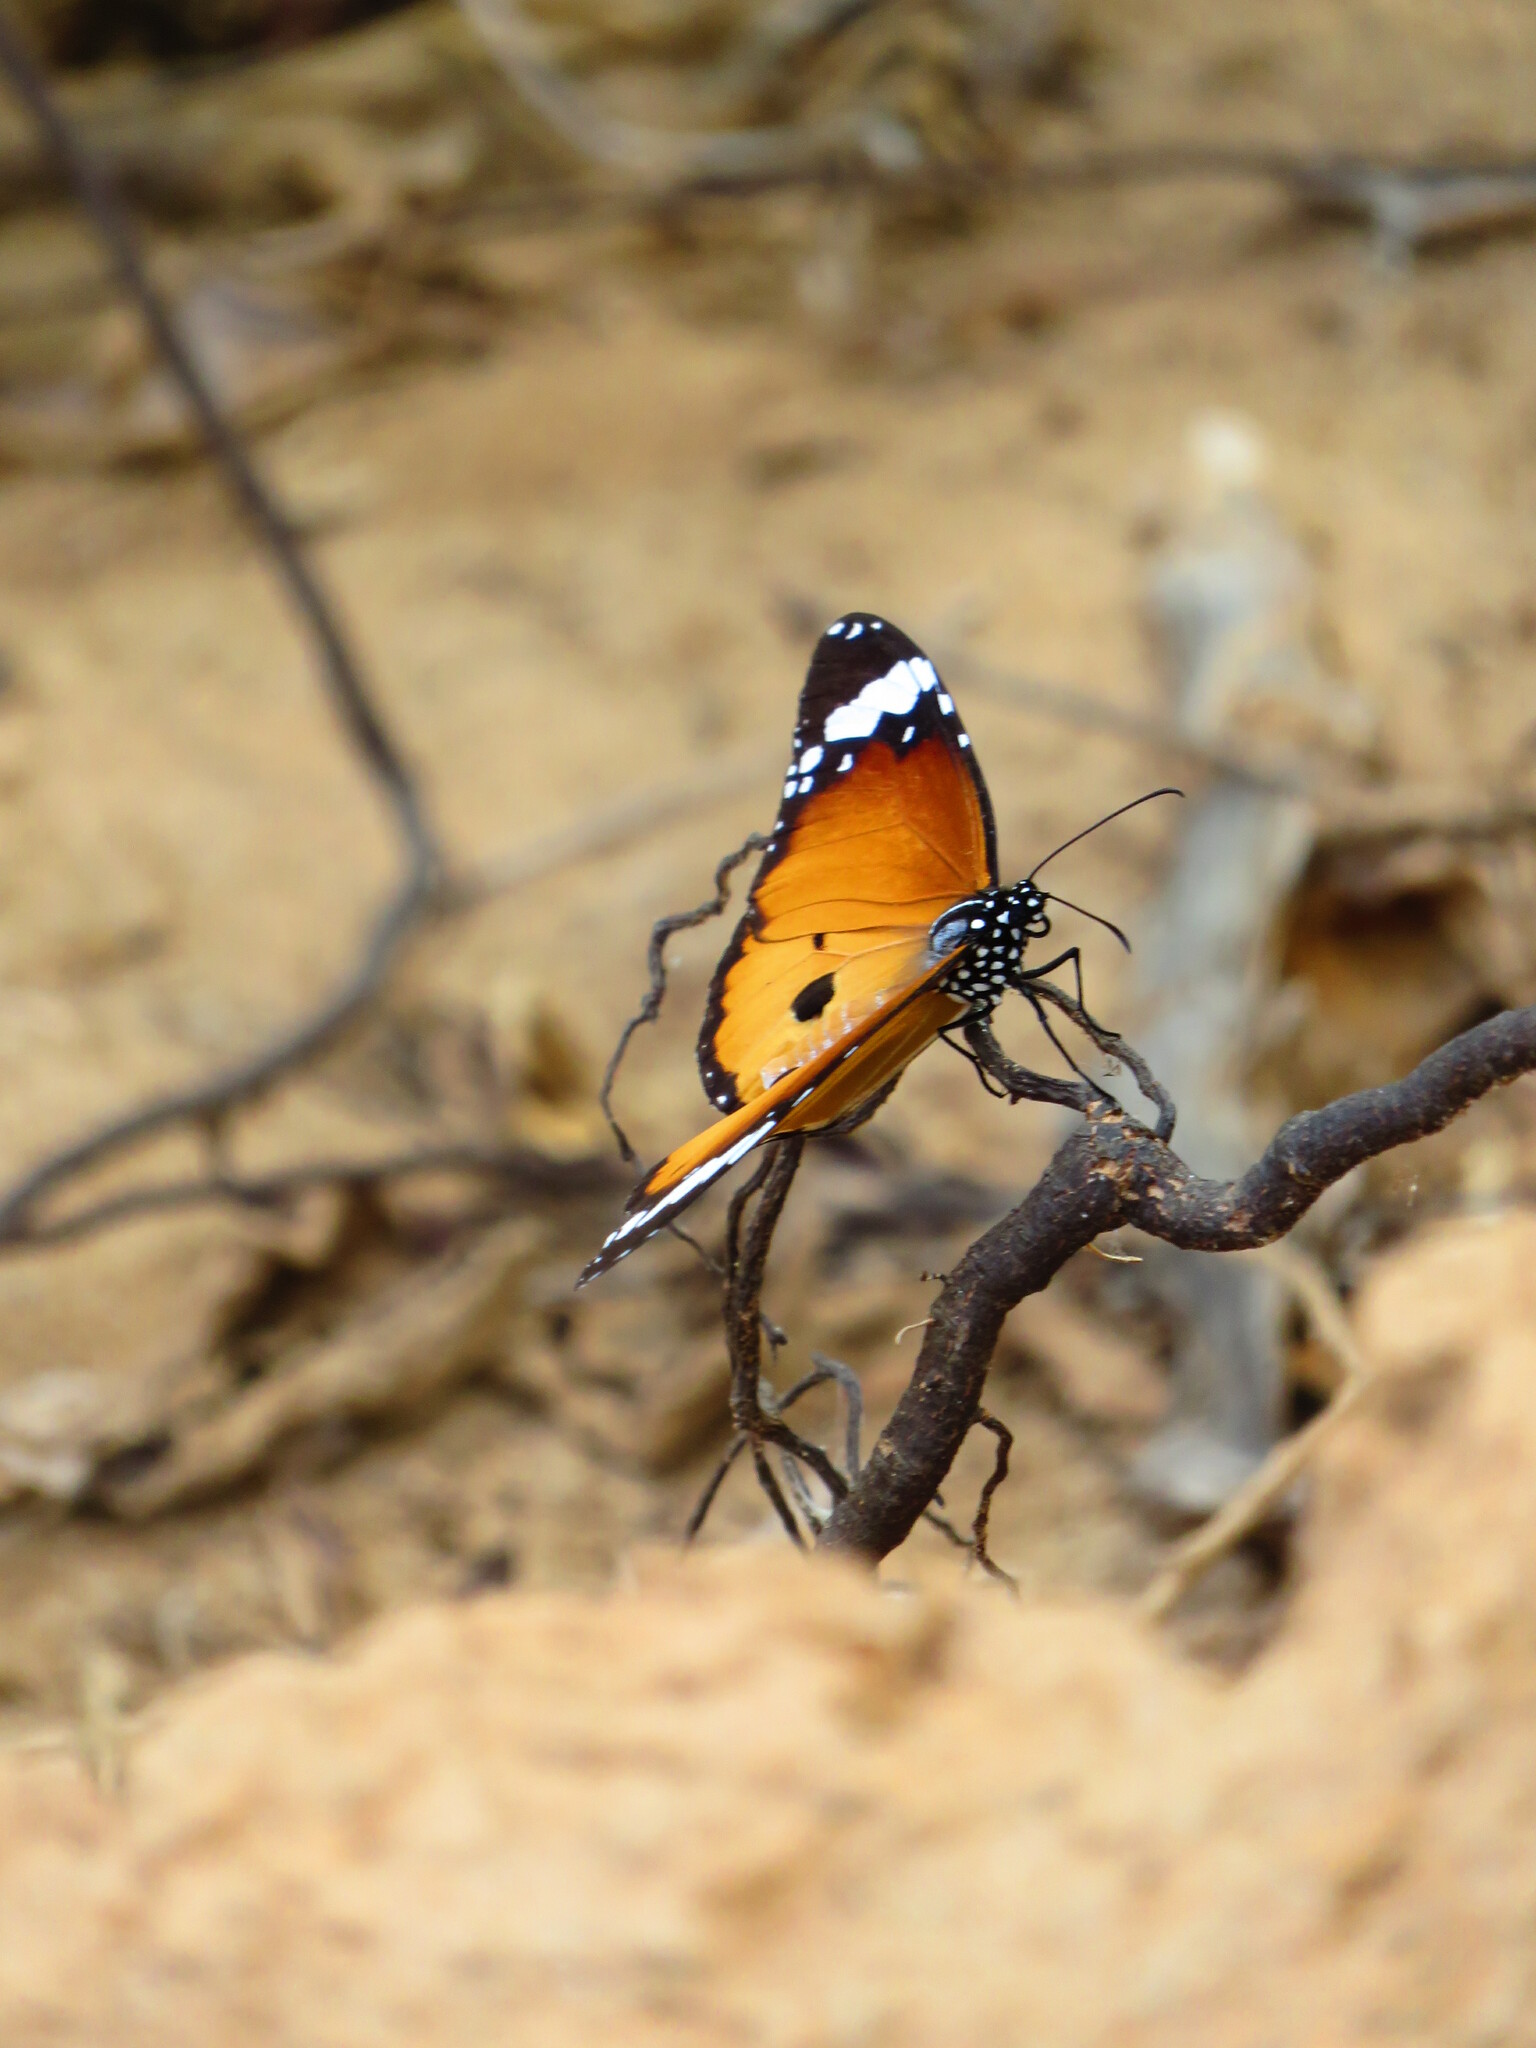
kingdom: Animalia
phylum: Arthropoda
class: Insecta
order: Lepidoptera
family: Nymphalidae
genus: Danaus
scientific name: Danaus chrysippus
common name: Plain tiger
